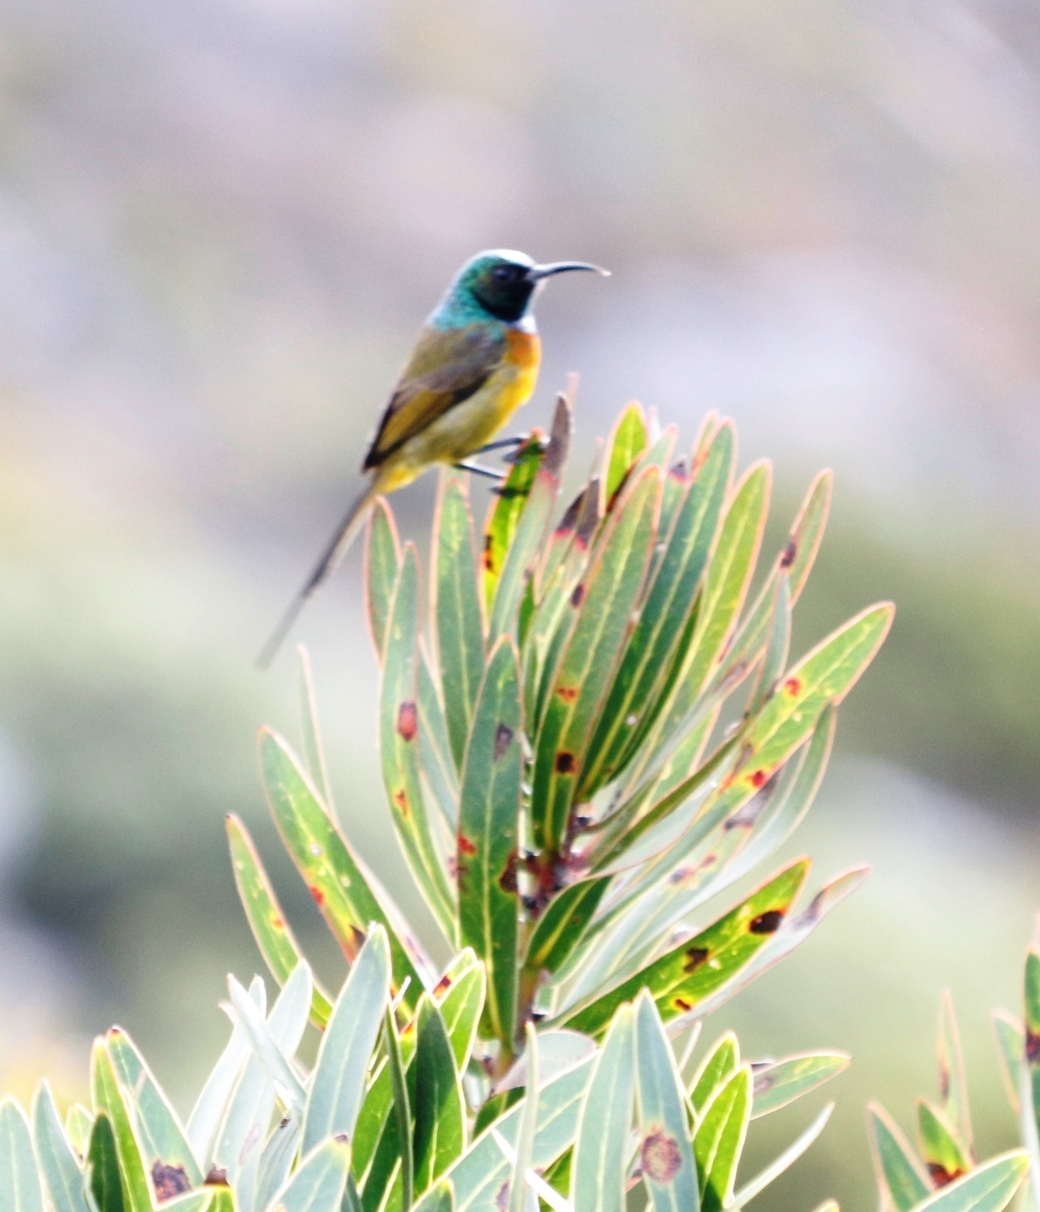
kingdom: Animalia
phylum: Chordata
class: Aves
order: Passeriformes
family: Nectariniidae
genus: Anthobaphes
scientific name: Anthobaphes violacea
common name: Orange-breasted sunbird
